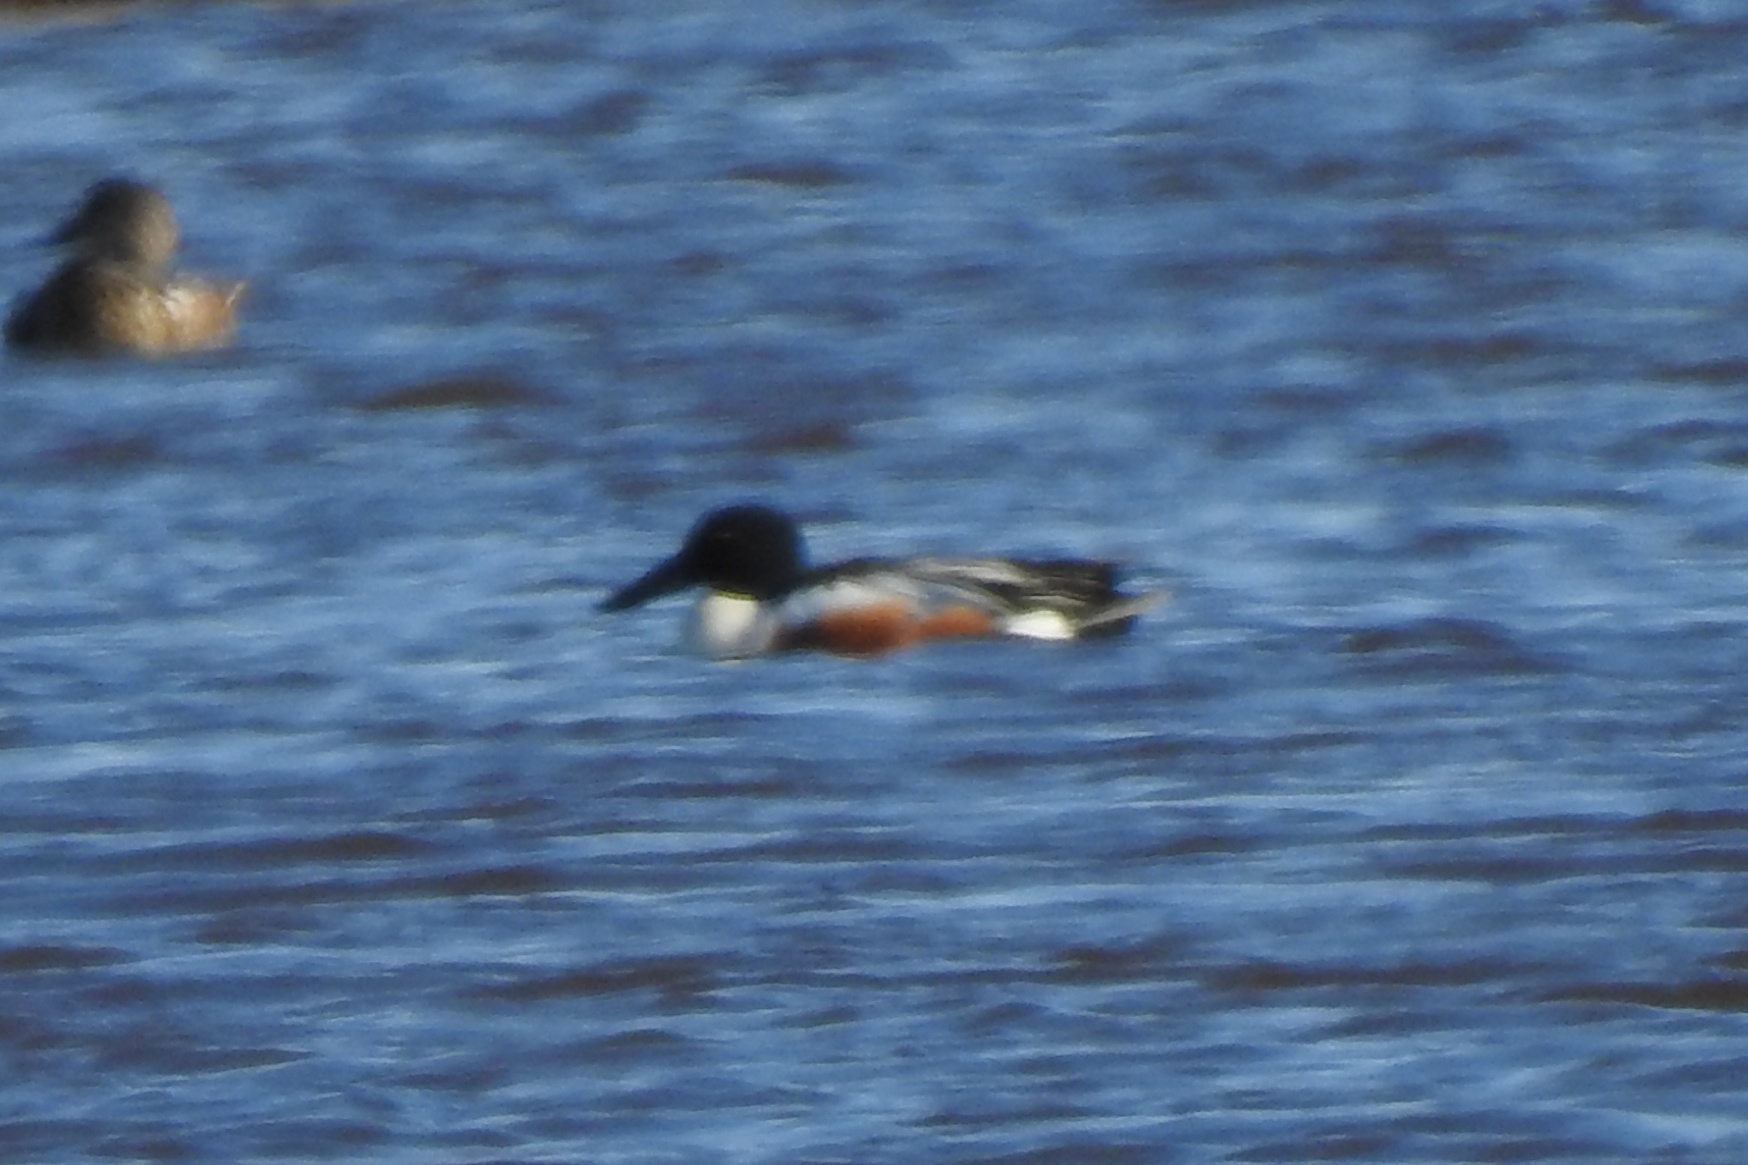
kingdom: Animalia
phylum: Chordata
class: Aves
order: Anseriformes
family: Anatidae
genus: Spatula
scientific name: Spatula clypeata
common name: Northern shoveler
